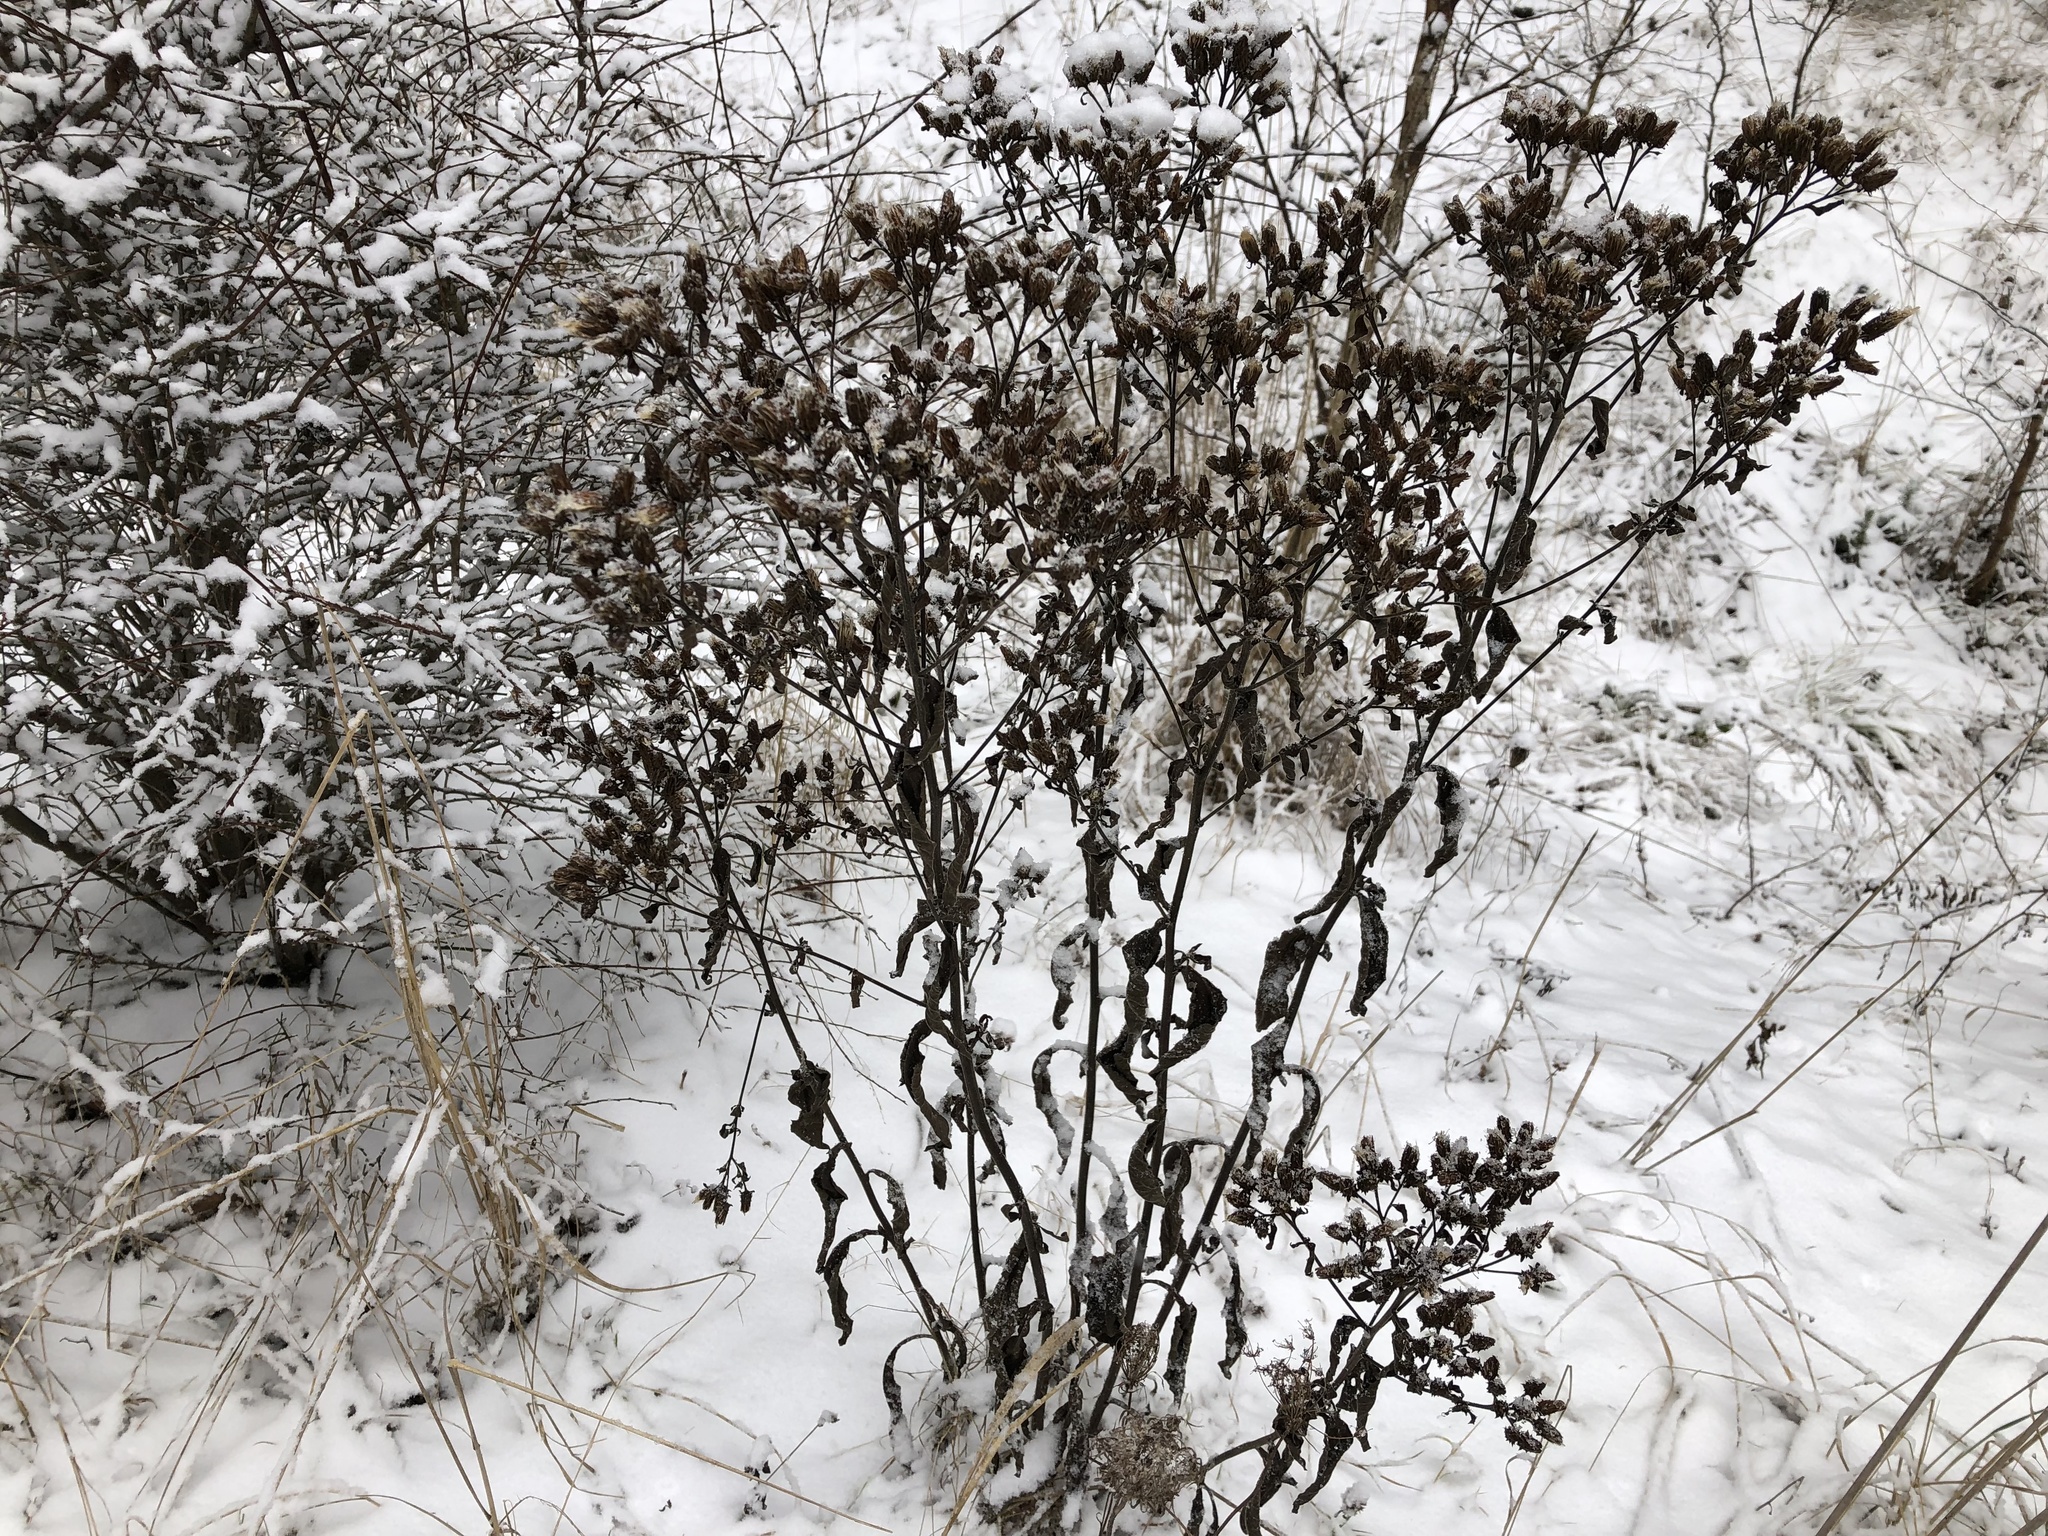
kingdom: Plantae
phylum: Tracheophyta
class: Magnoliopsida
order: Asterales
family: Asteraceae
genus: Pentanema
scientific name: Pentanema squarrosum
